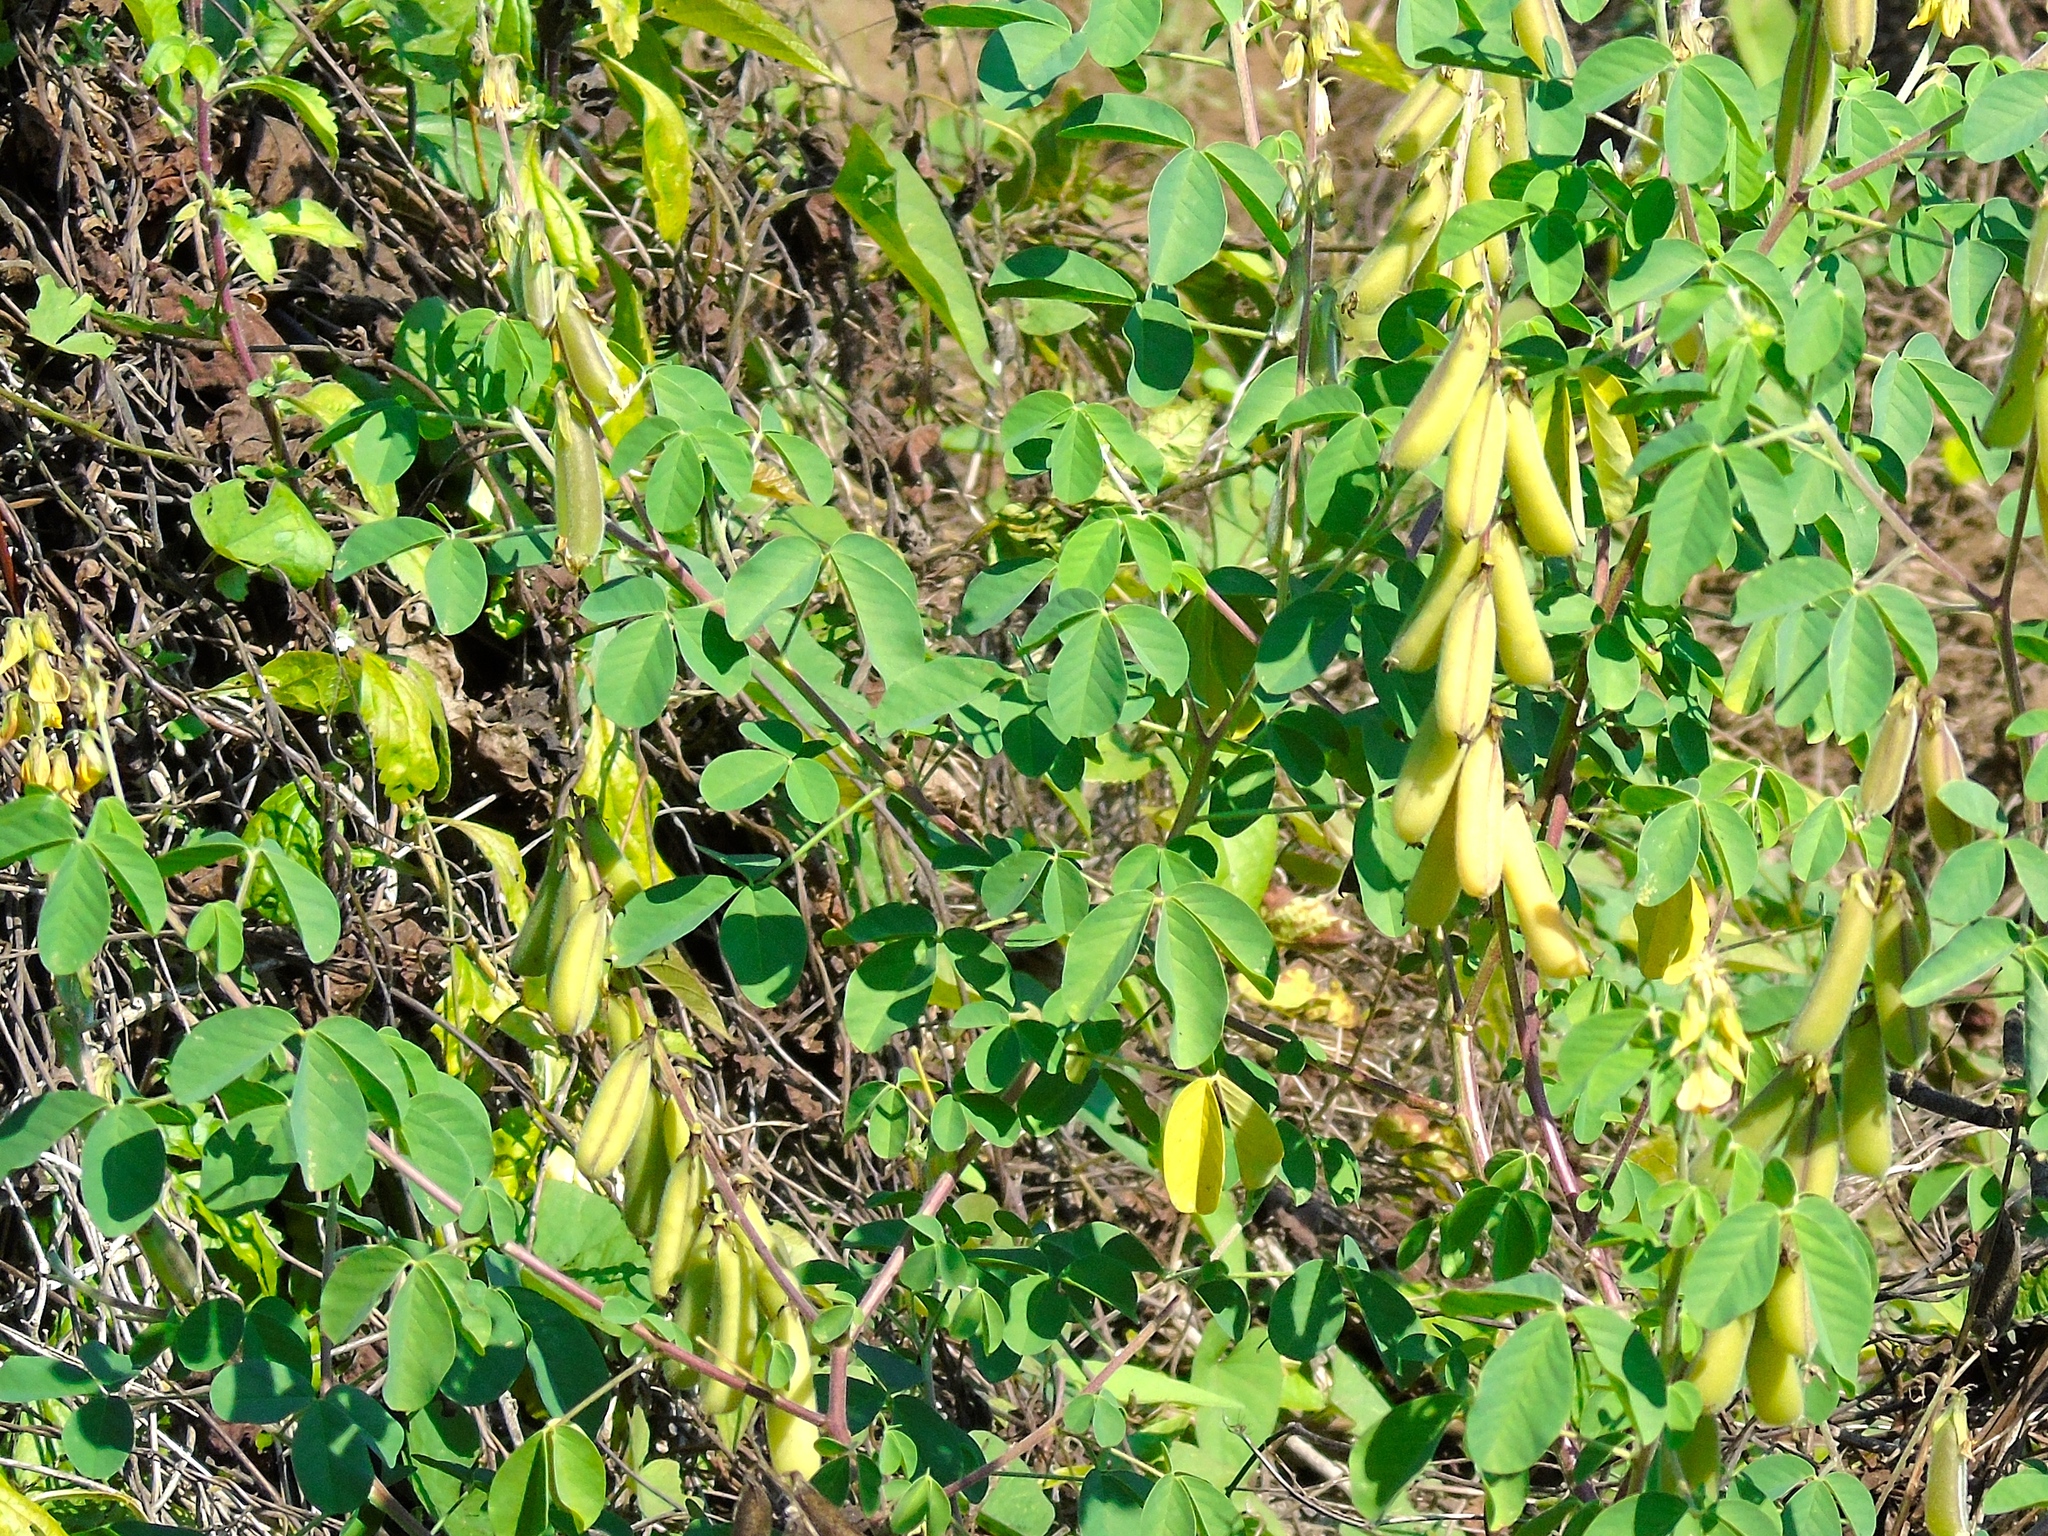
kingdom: Plantae
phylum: Tracheophyta
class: Magnoliopsida
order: Fabales
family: Fabaceae
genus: Crotalaria
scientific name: Crotalaria
